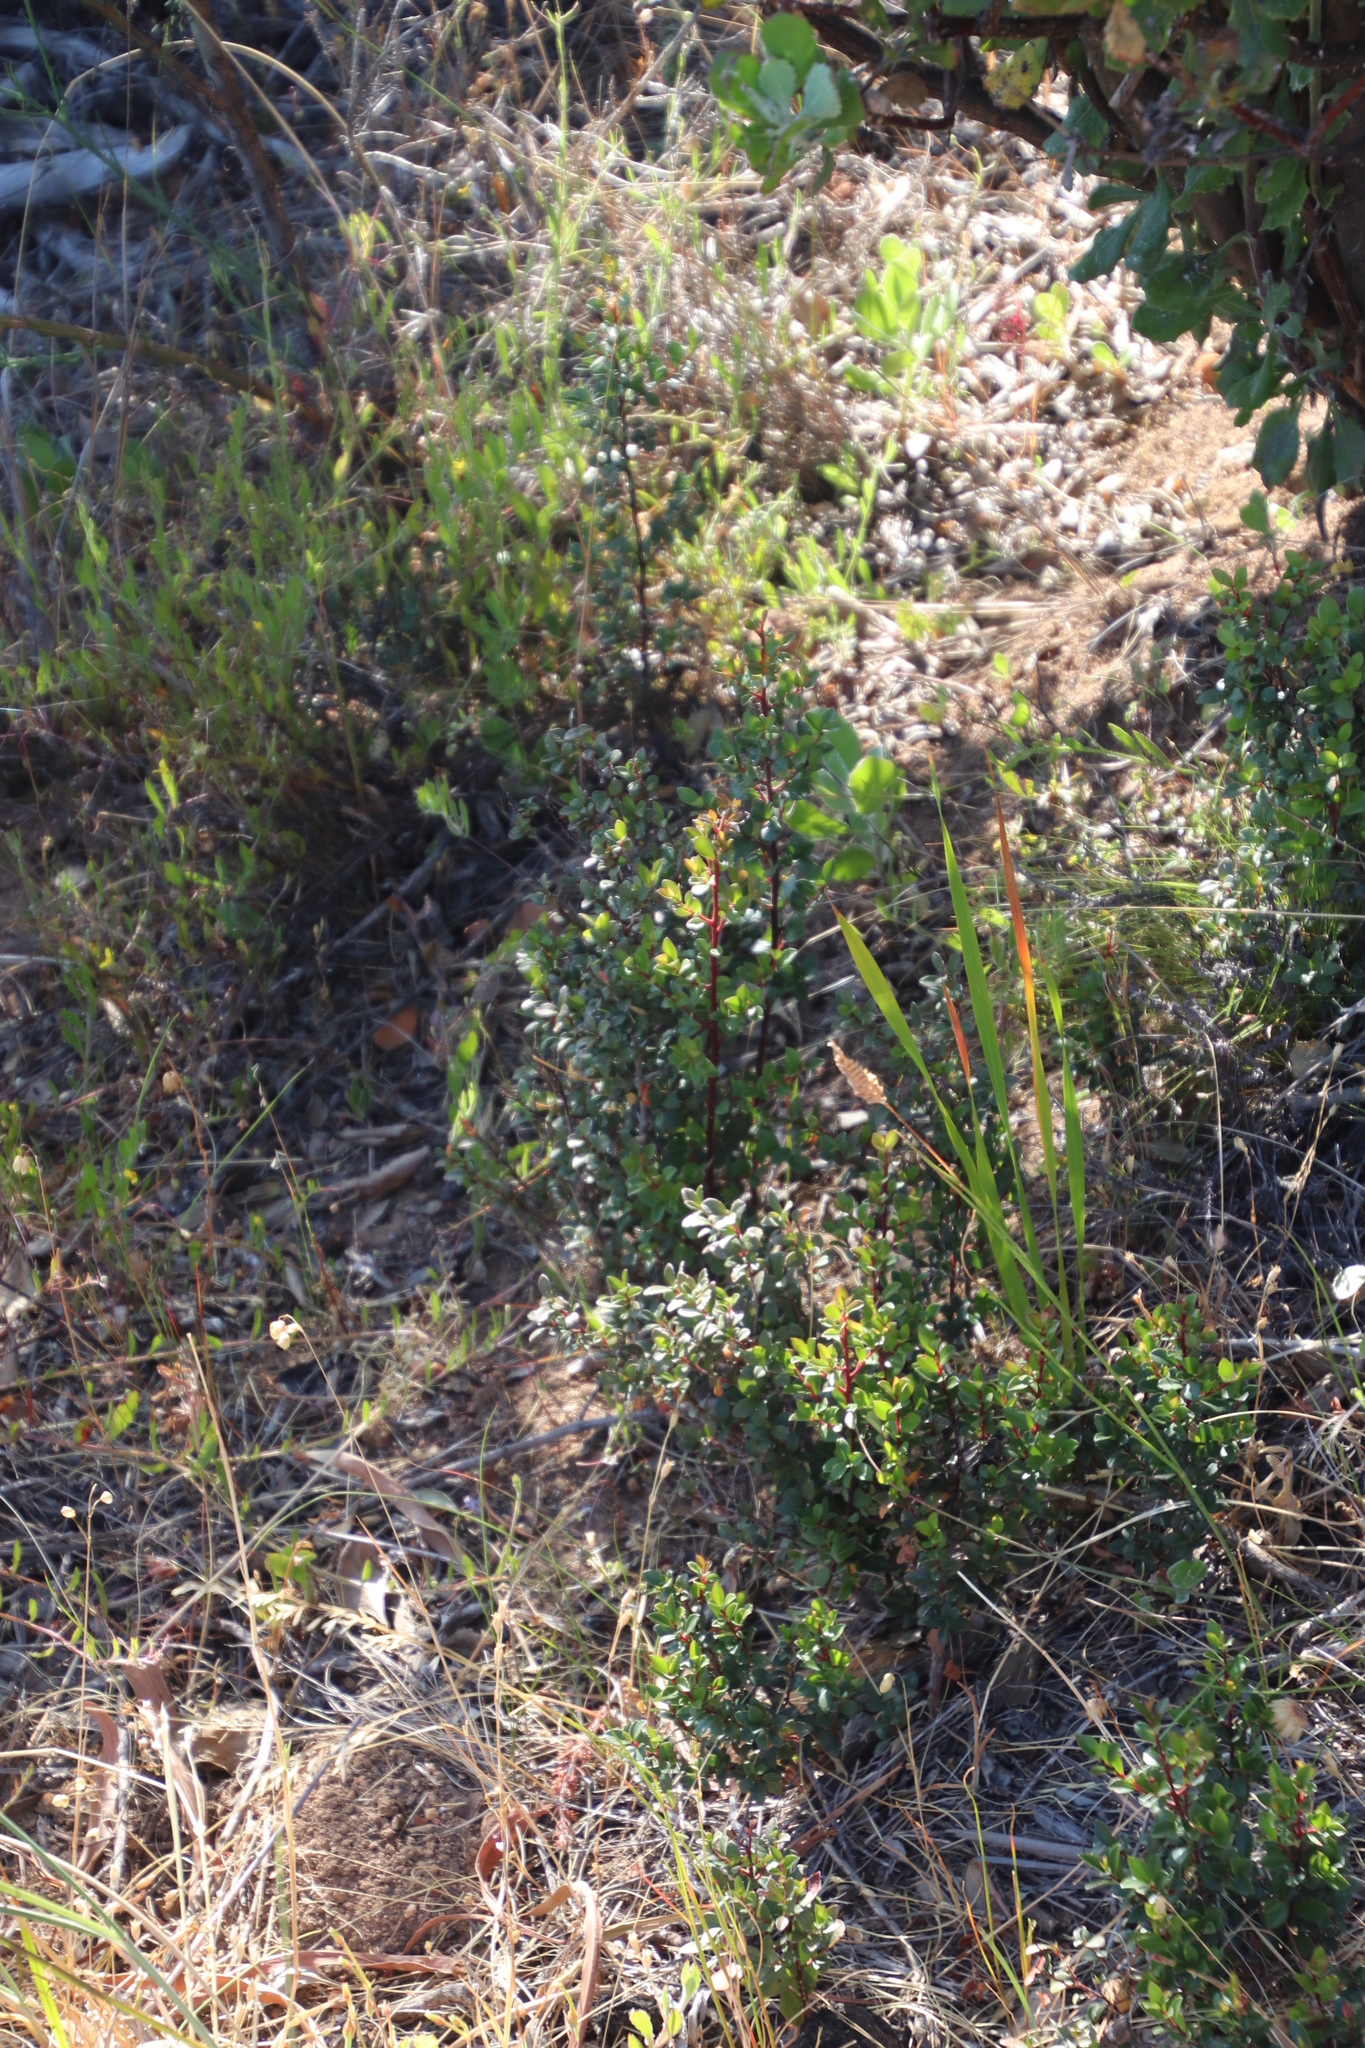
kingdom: Plantae
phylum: Tracheophyta
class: Magnoliopsida
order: Ericales
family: Primulaceae
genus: Myrsine
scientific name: Myrsine africana
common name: African-boxwood
